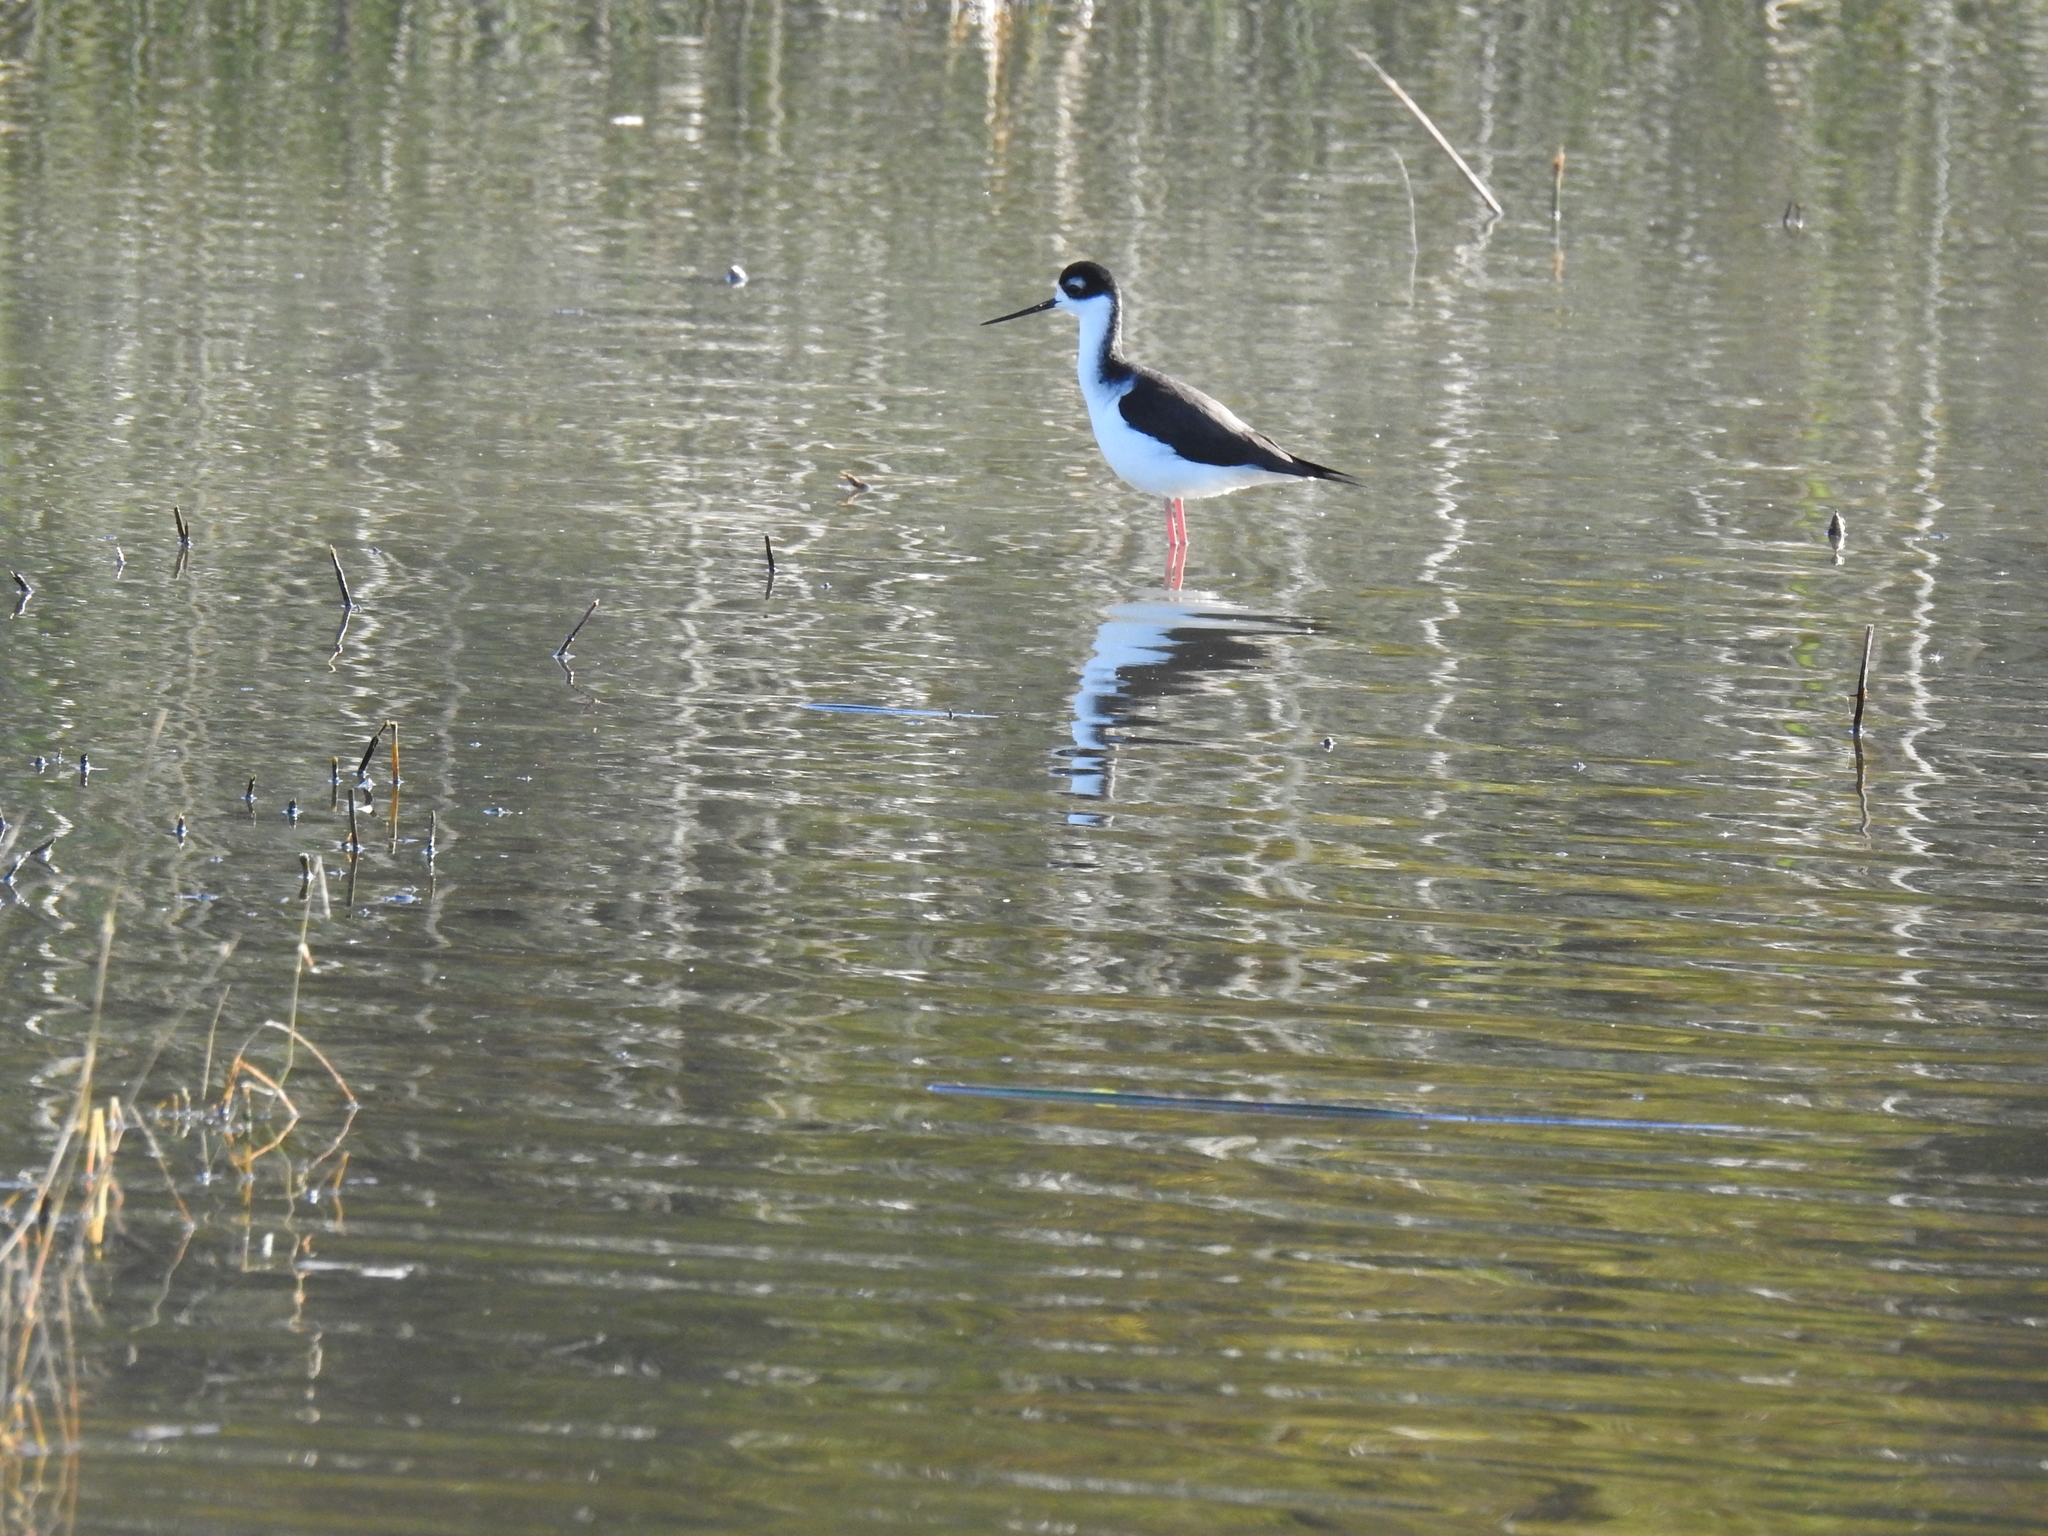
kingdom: Animalia
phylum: Chordata
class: Aves
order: Charadriiformes
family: Recurvirostridae
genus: Himantopus
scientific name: Himantopus mexicanus
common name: Black-necked stilt
